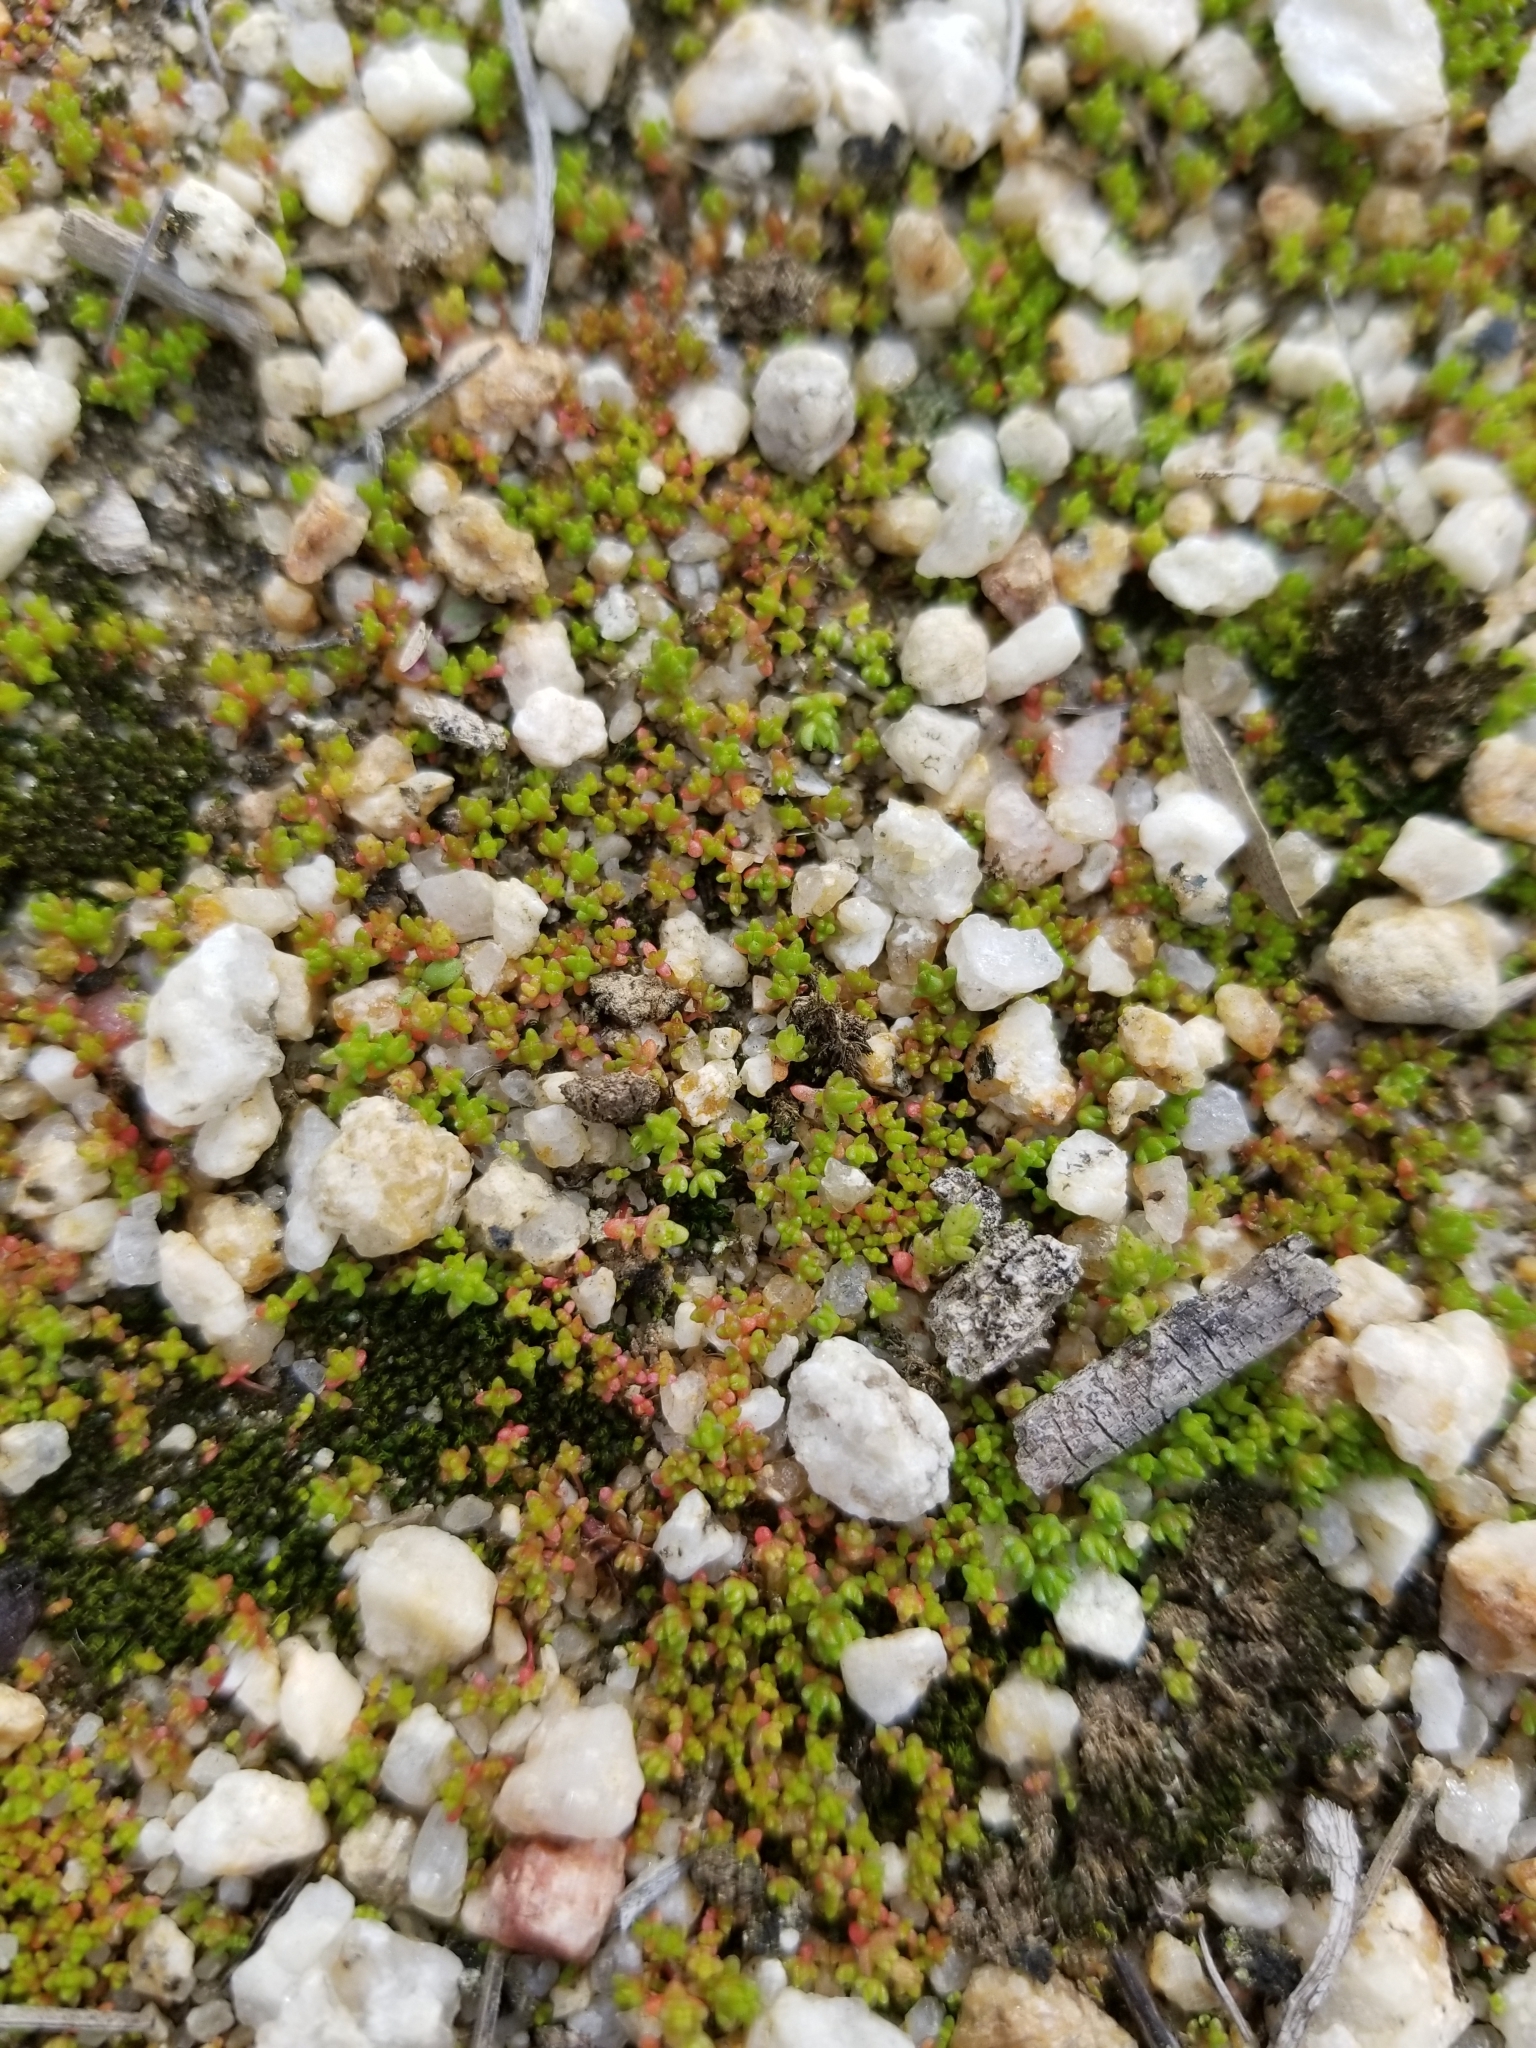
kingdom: Plantae
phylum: Tracheophyta
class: Magnoliopsida
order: Saxifragales
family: Crassulaceae
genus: Crassula
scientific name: Crassula connata
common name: Erect pygmyweed
